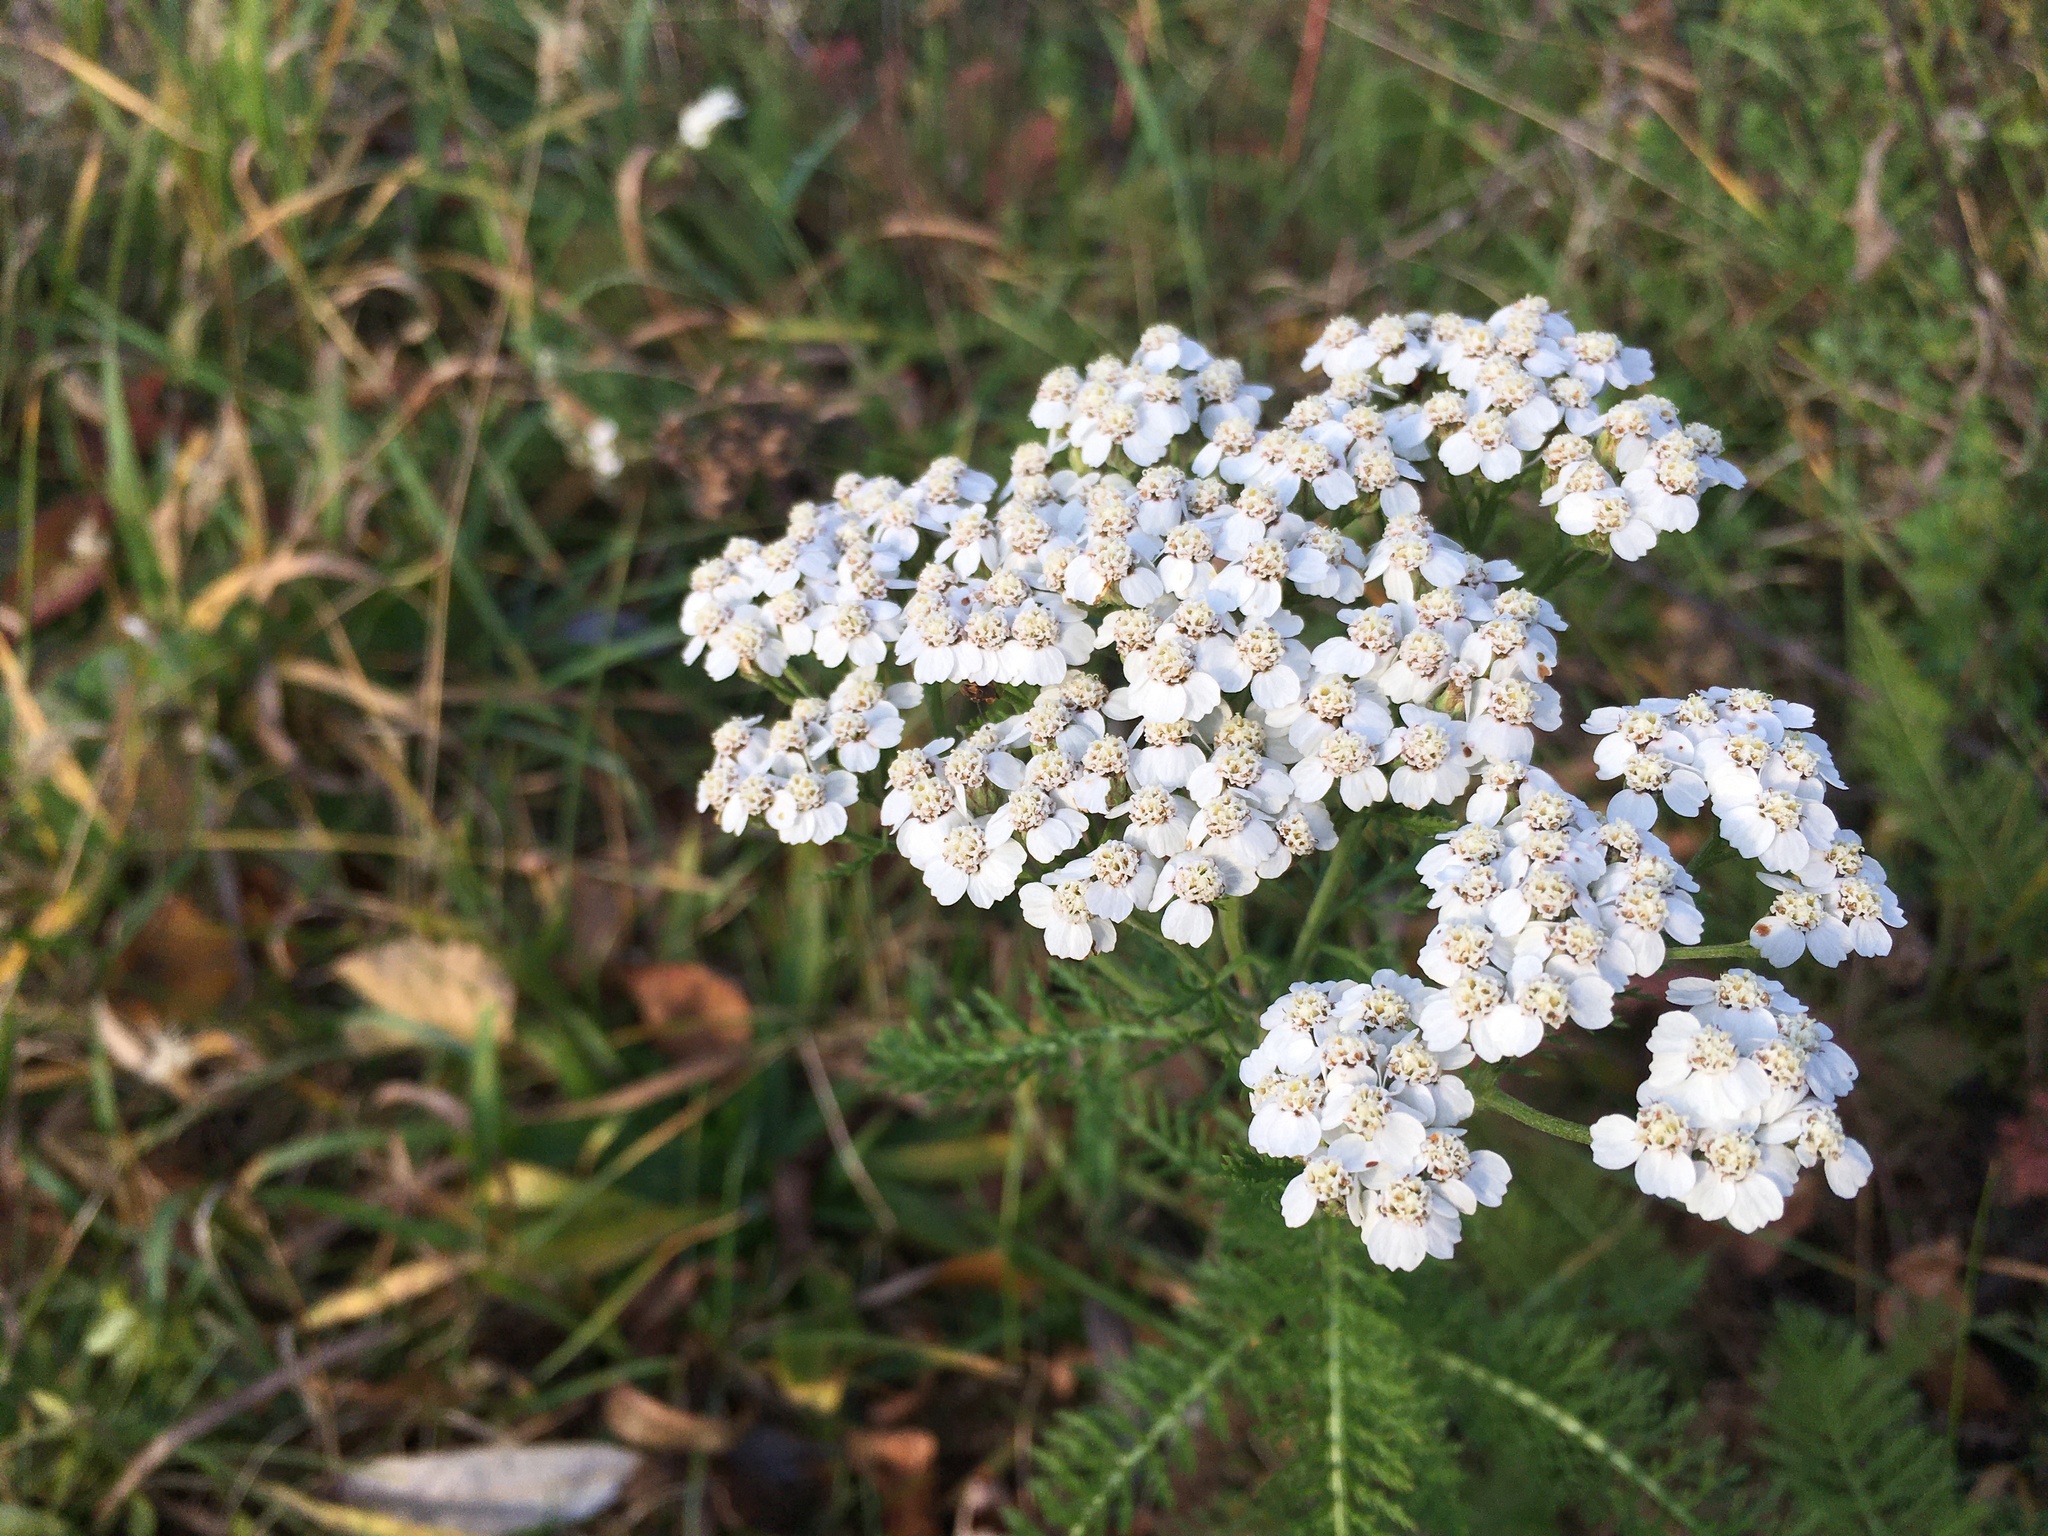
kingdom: Plantae
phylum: Tracheophyta
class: Magnoliopsida
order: Asterales
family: Asteraceae
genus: Achillea
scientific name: Achillea millefolium
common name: Yarrow
